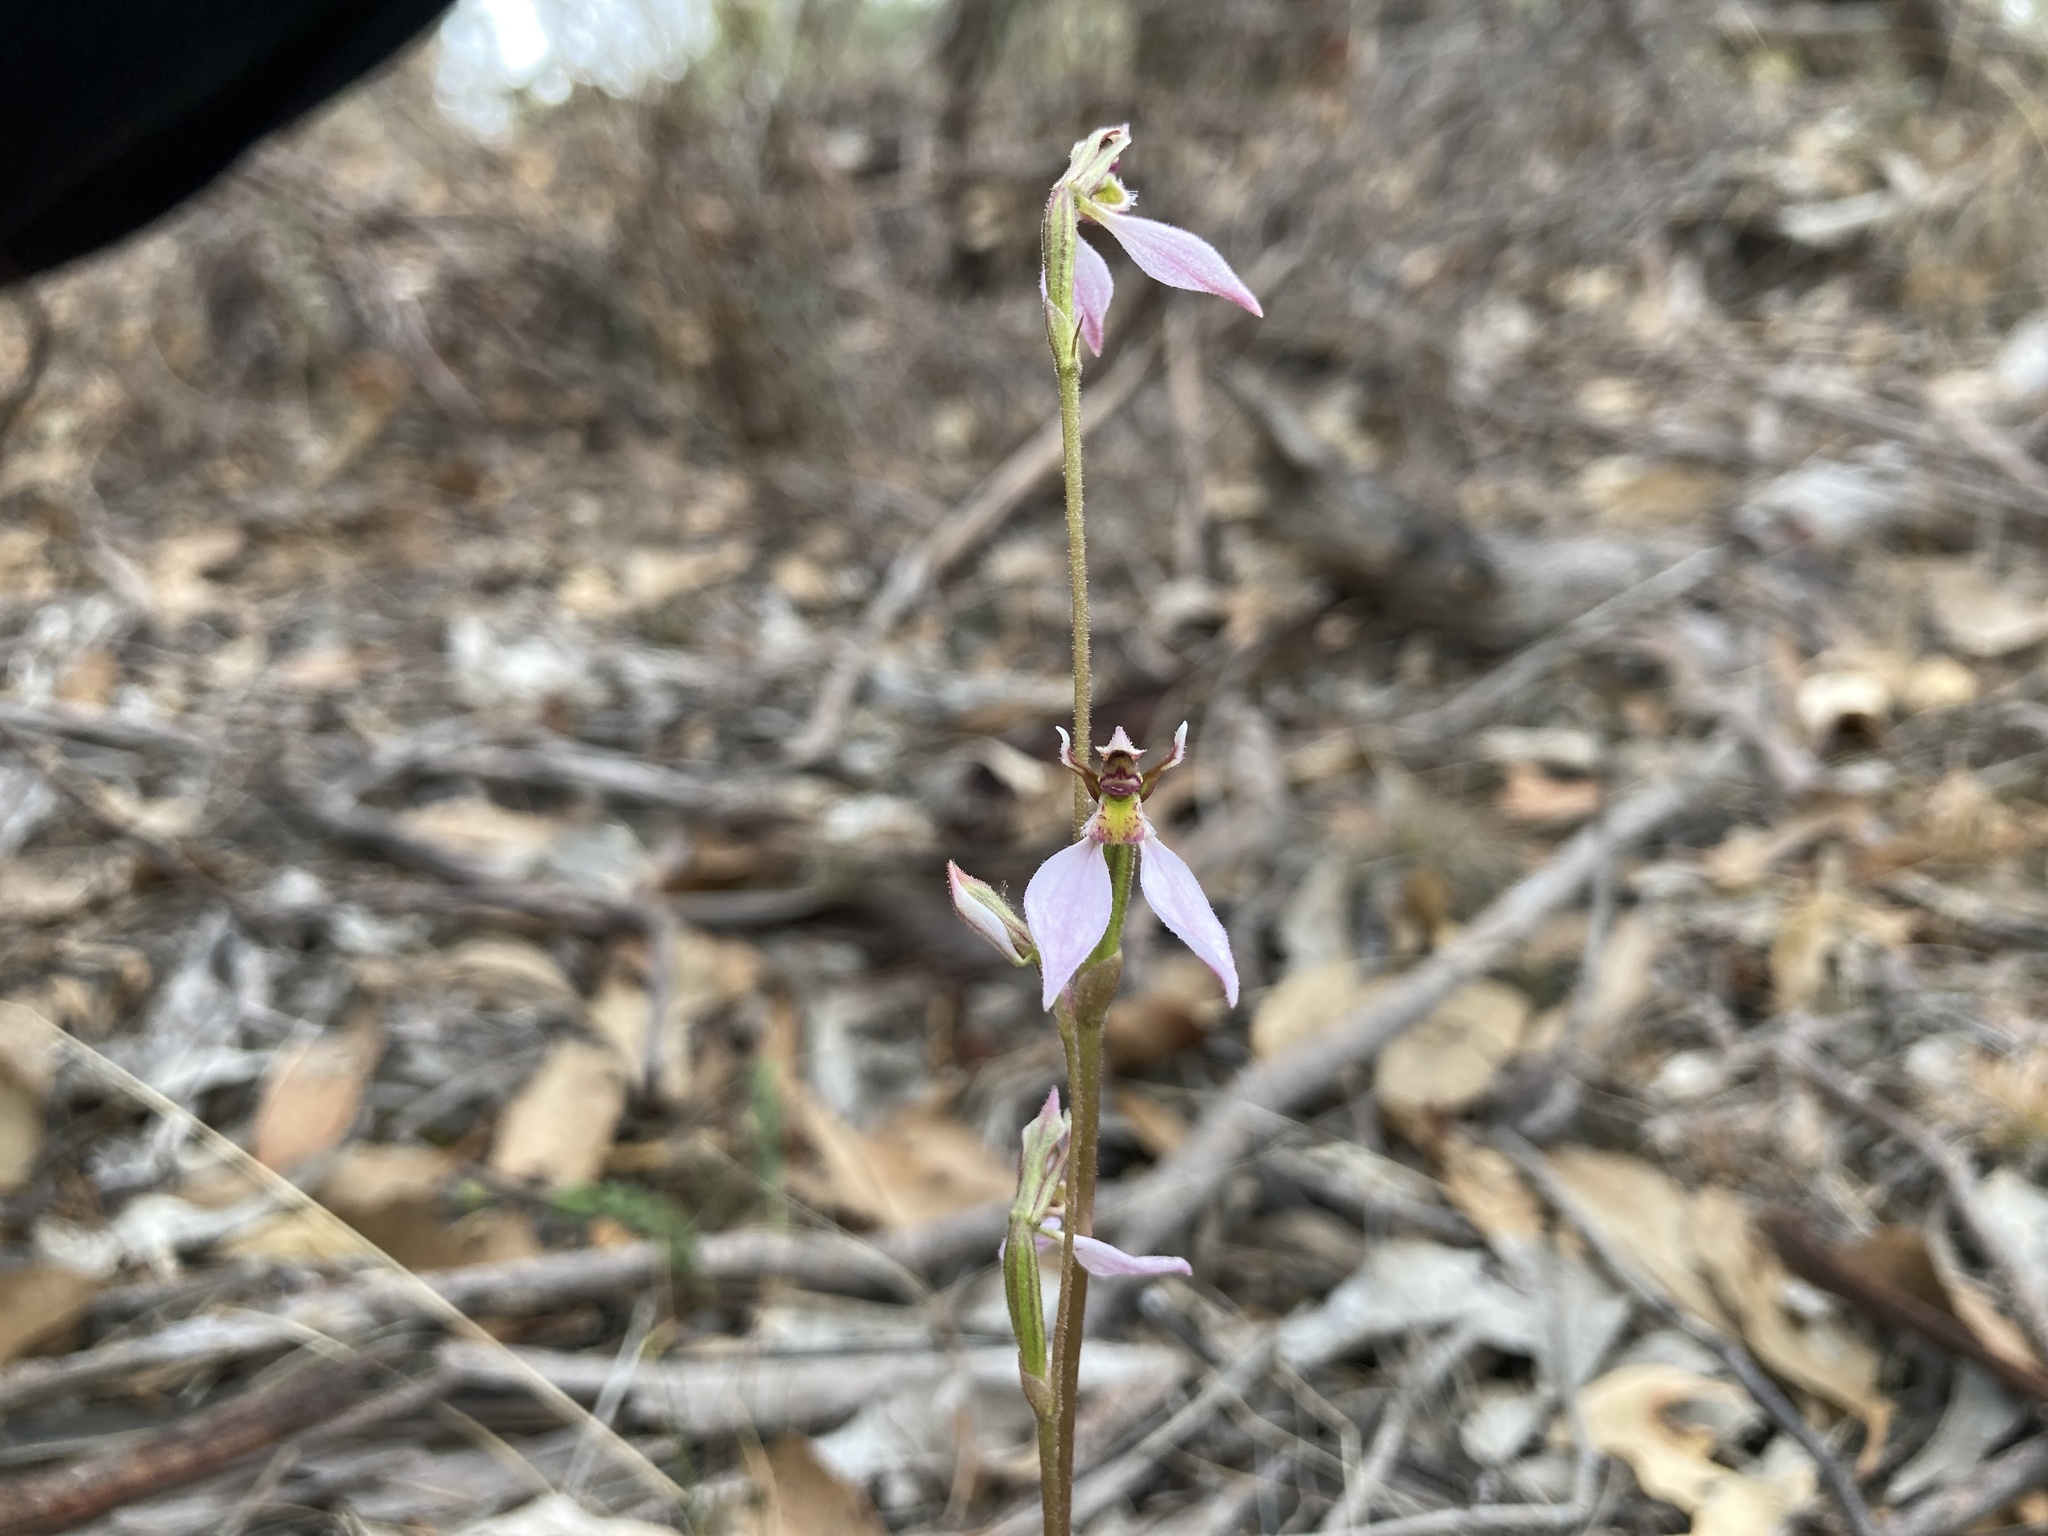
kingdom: Plantae
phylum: Tracheophyta
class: Liliopsida
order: Asparagales
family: Orchidaceae
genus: Eriochilus
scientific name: Eriochilus cucullatus
